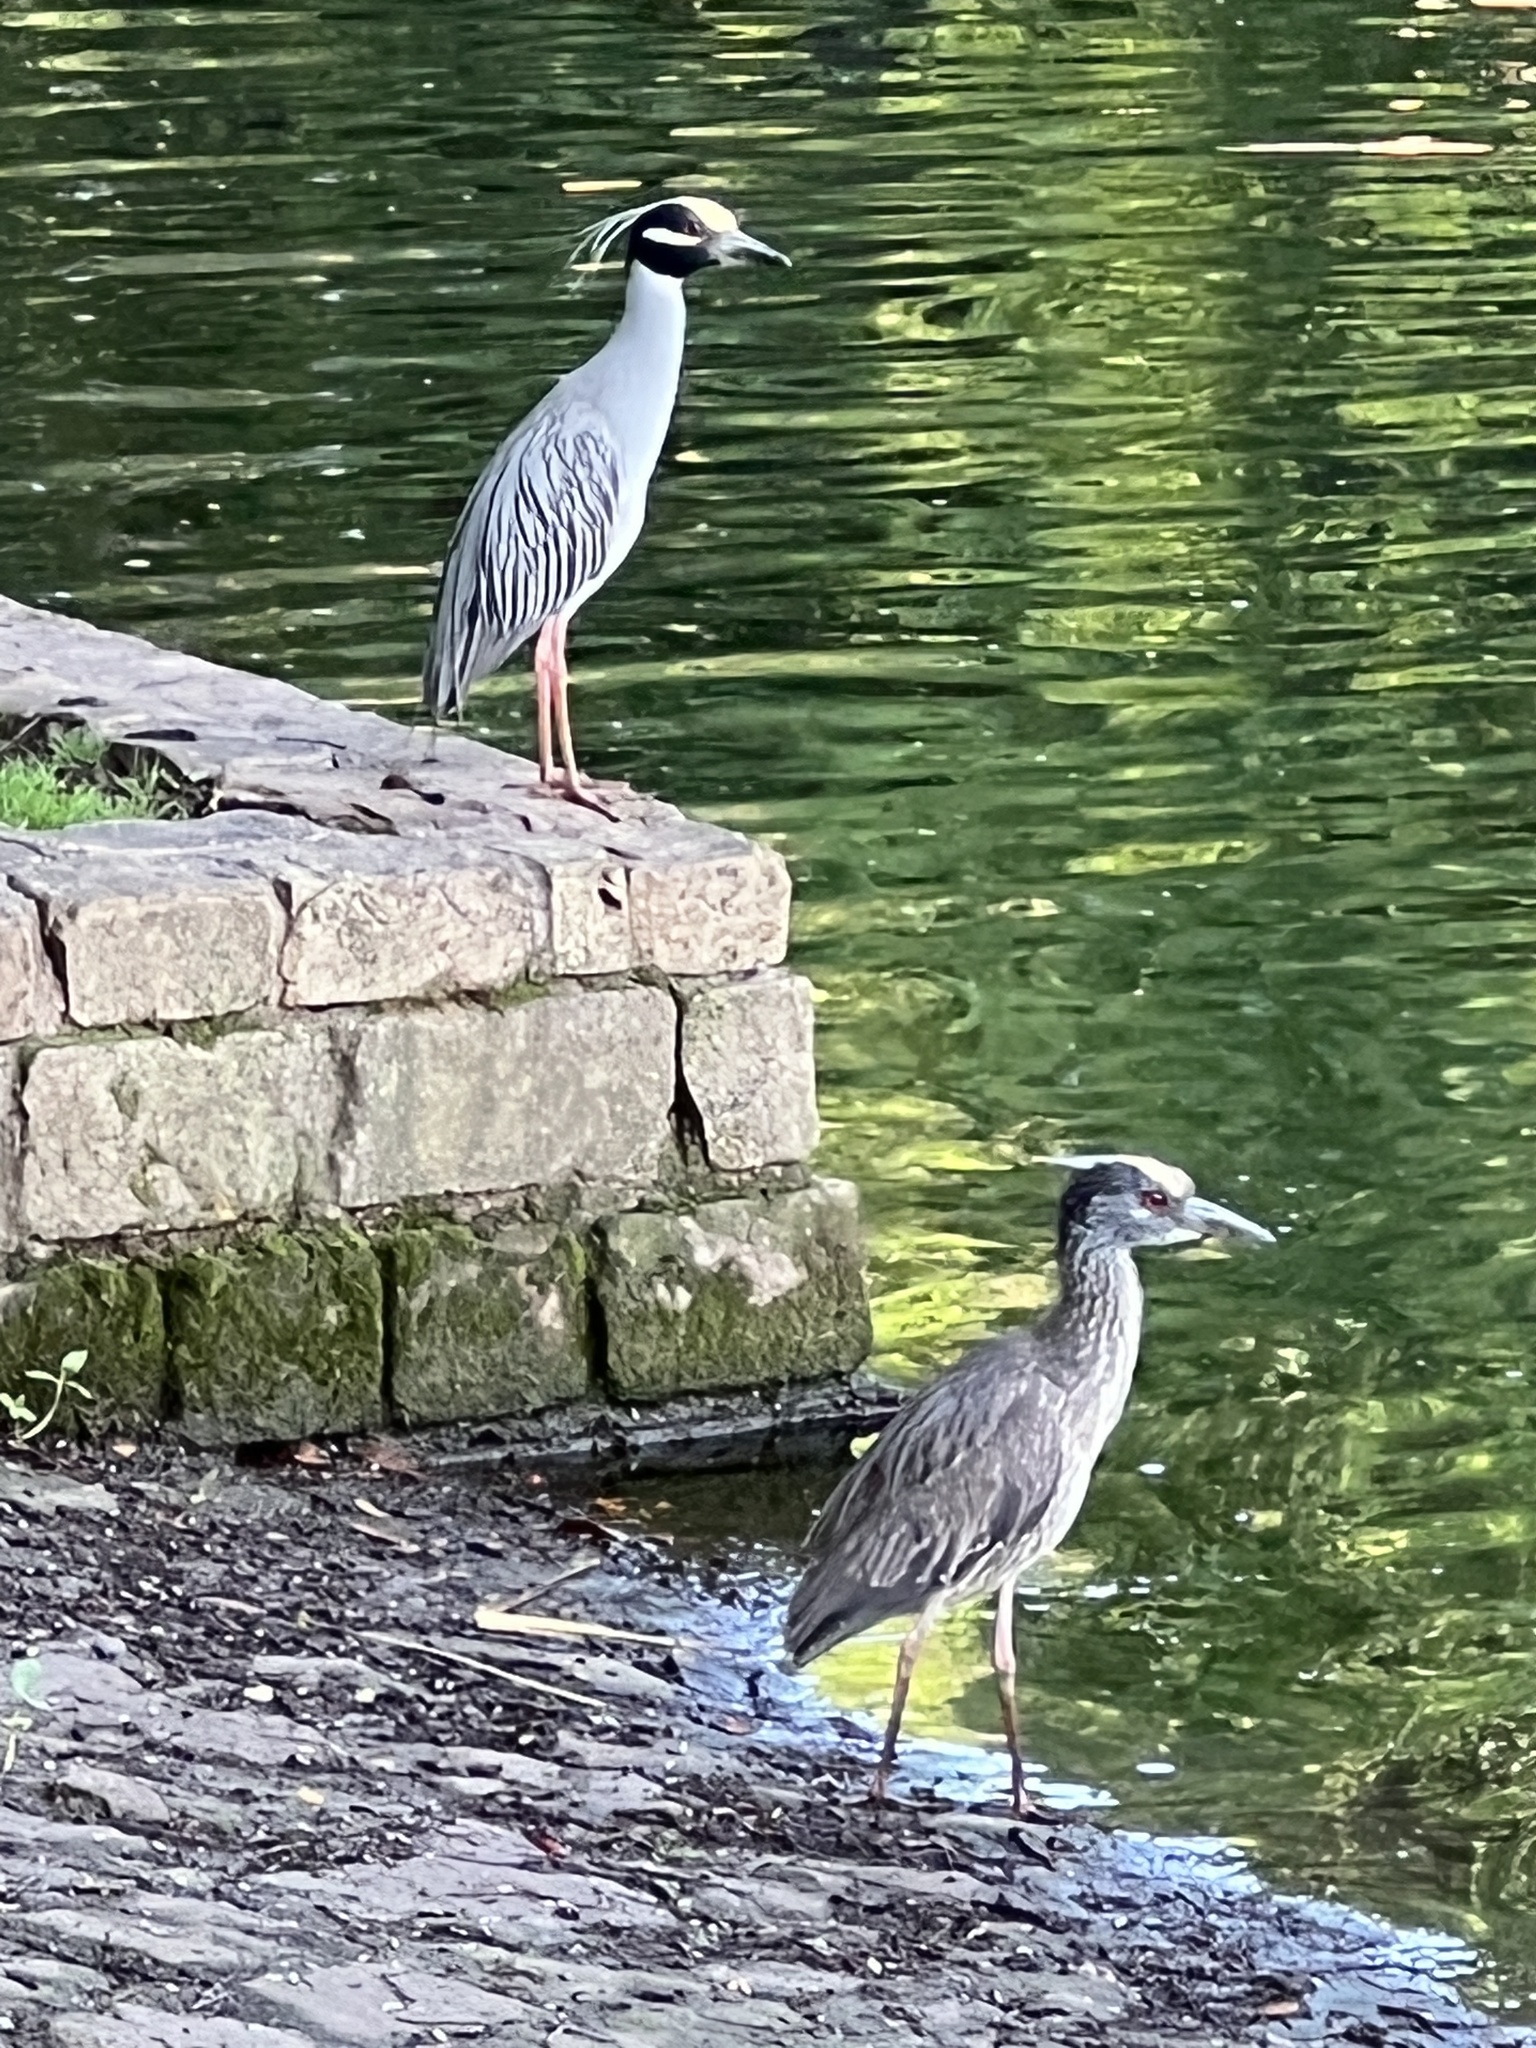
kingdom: Animalia
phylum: Chordata
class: Aves
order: Pelecaniformes
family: Ardeidae
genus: Nyctanassa
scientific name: Nyctanassa violacea
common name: Yellow-crowned night heron
